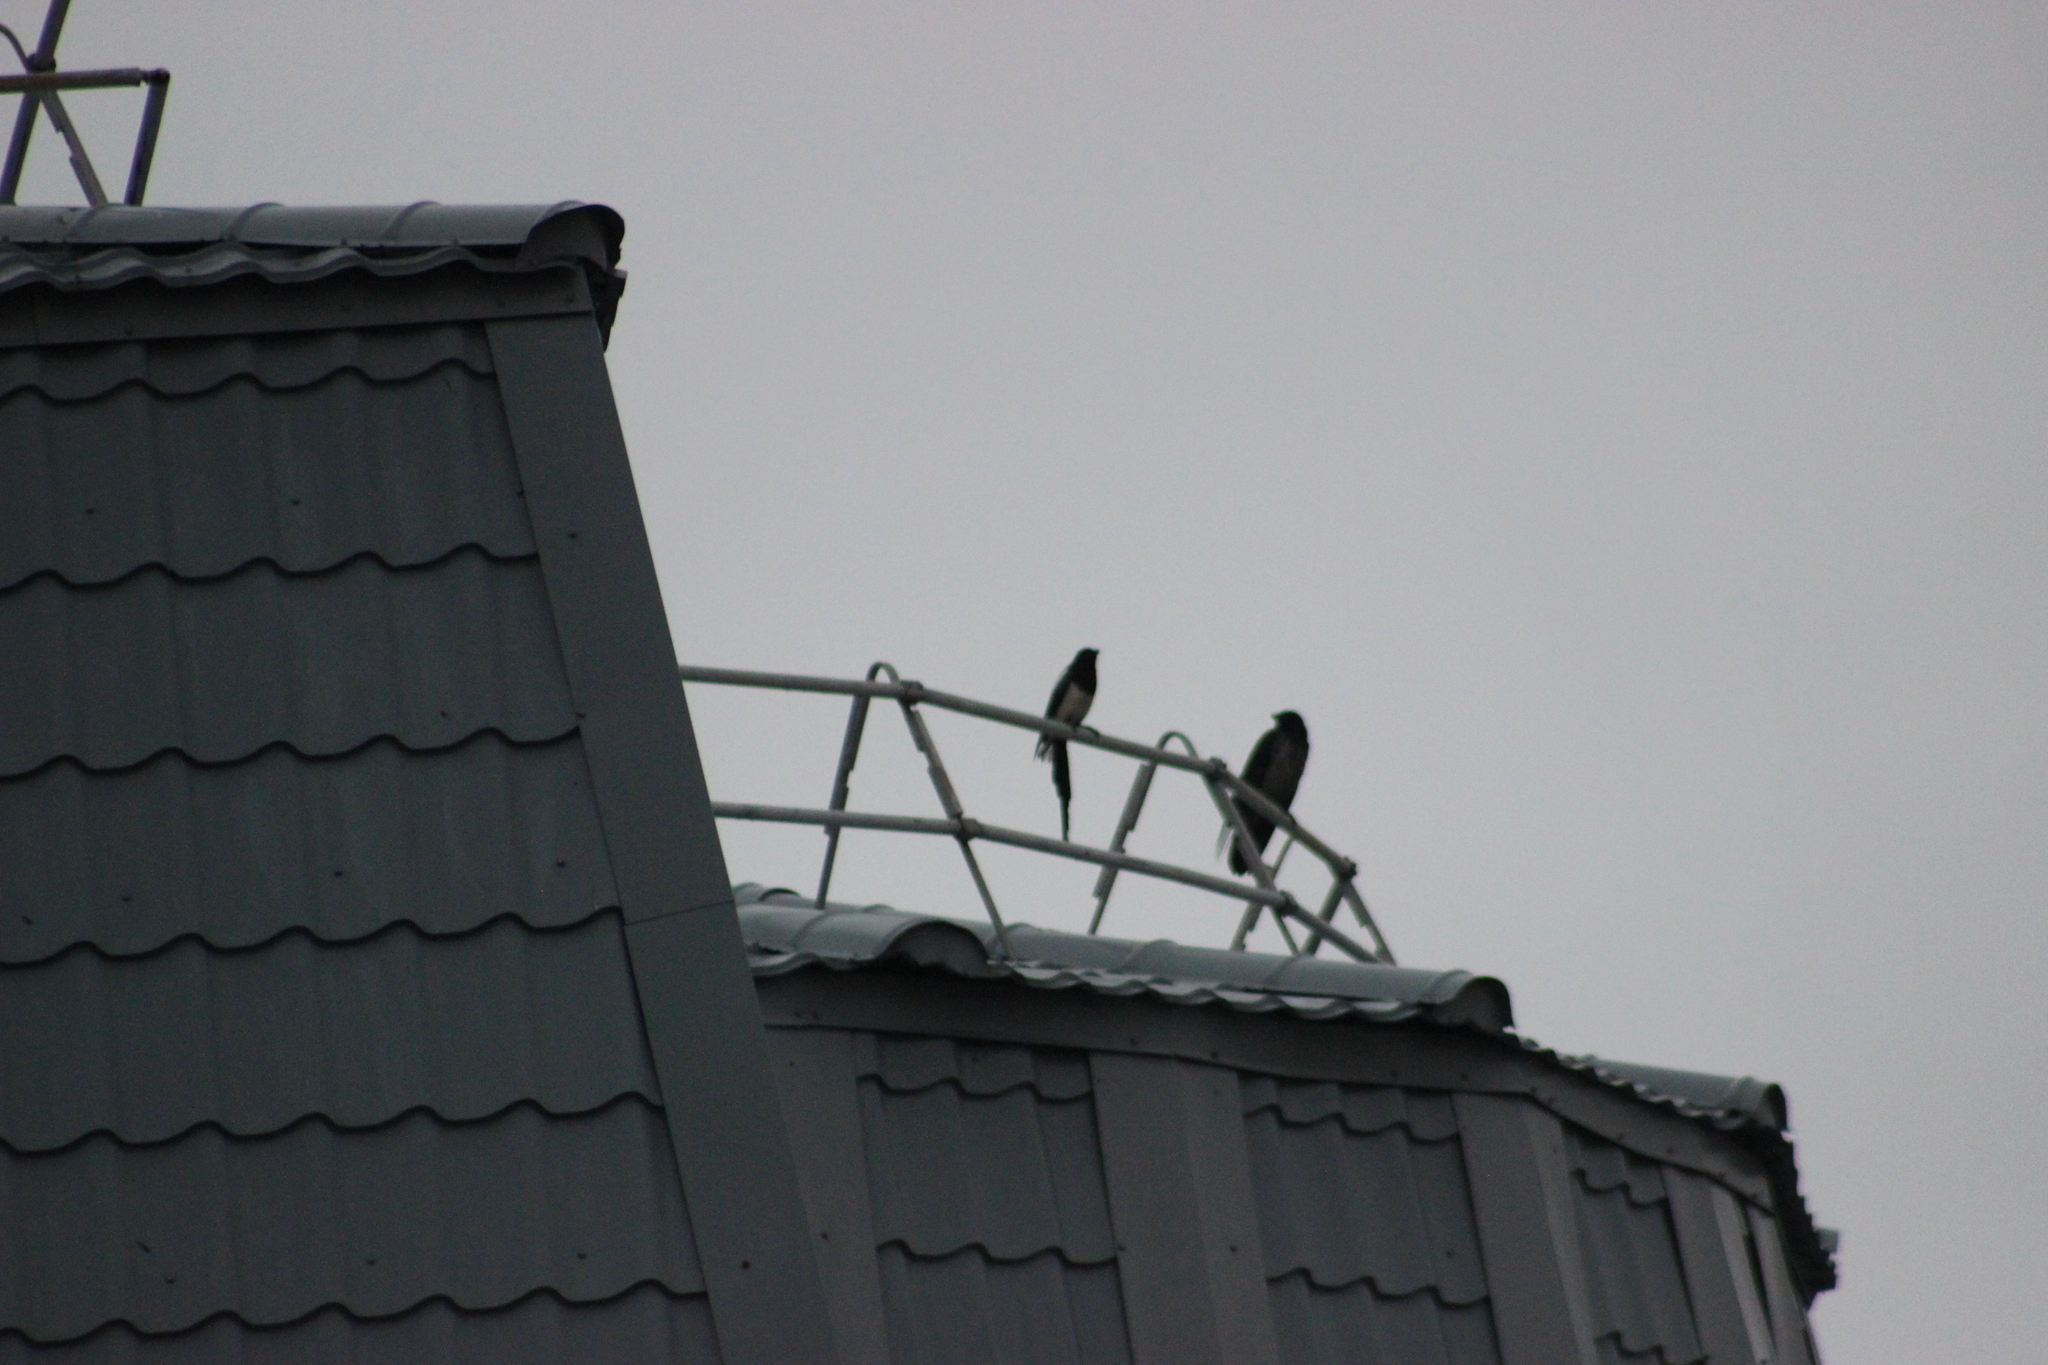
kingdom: Animalia
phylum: Chordata
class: Aves
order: Passeriformes
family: Corvidae
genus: Pica
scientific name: Pica pica
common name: Eurasian magpie
